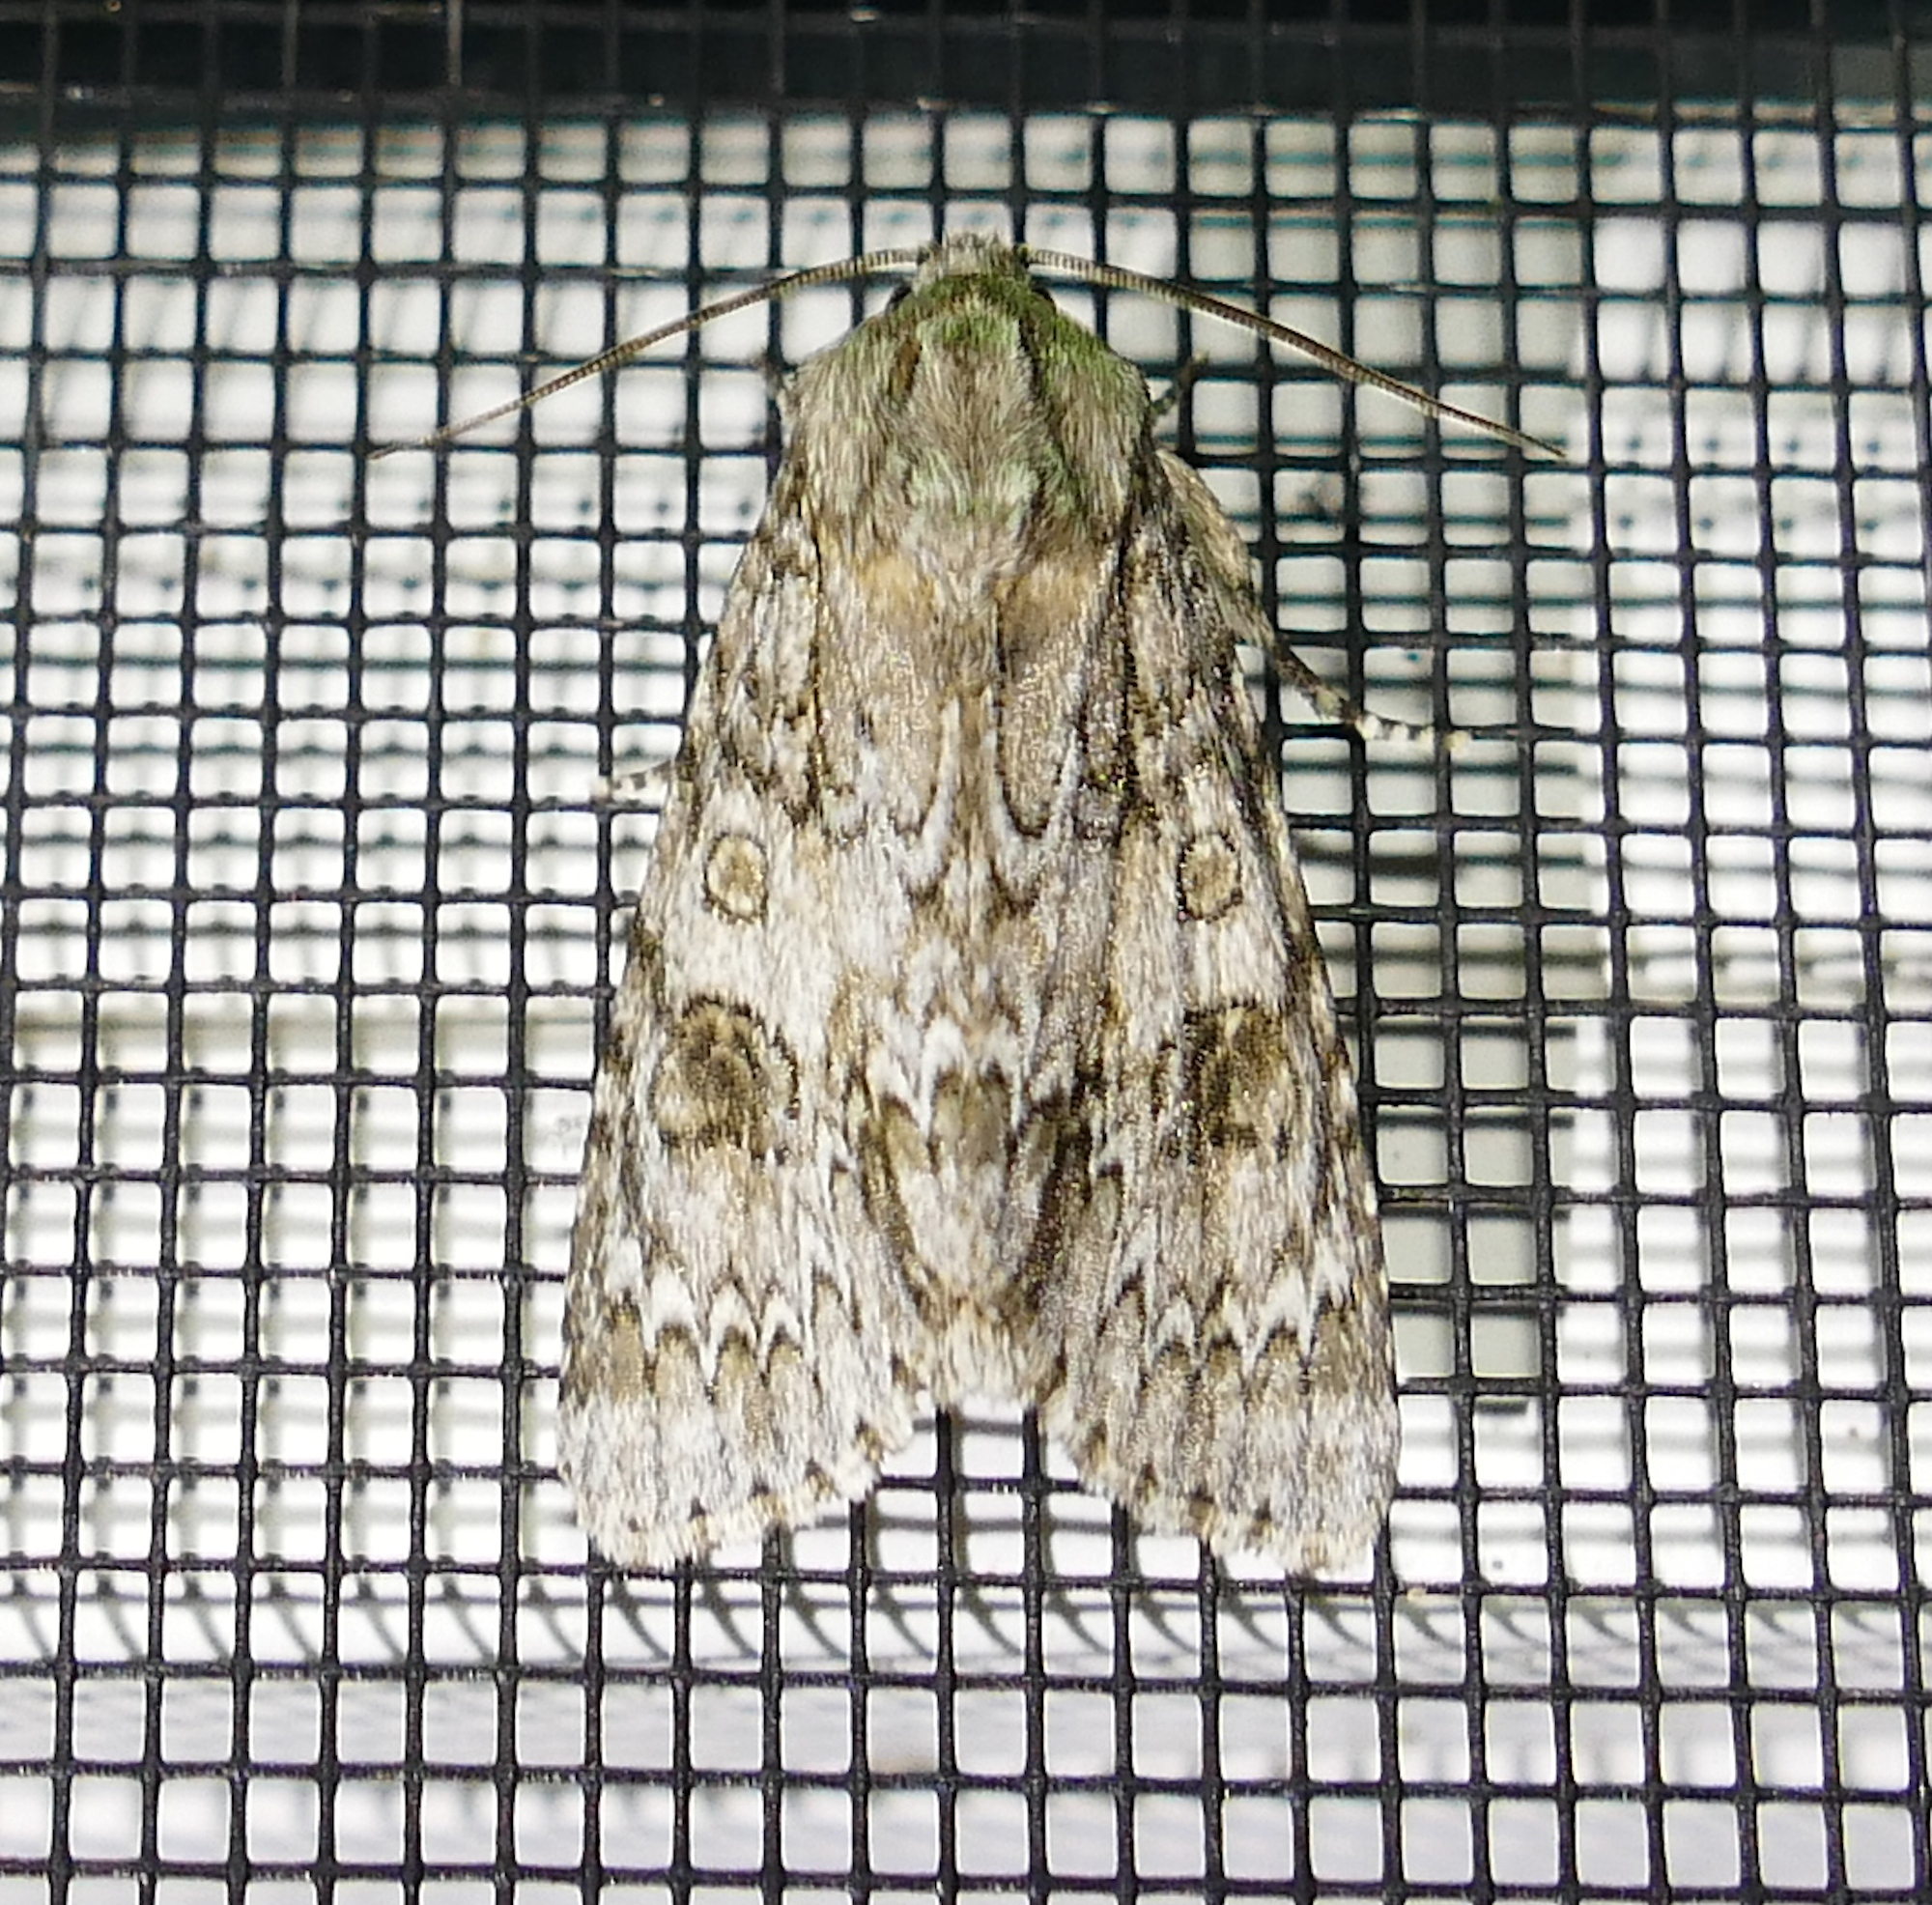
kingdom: Animalia
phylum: Arthropoda
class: Insecta
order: Lepidoptera
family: Noctuidae
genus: Acronicta
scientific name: Acronicta rubricoma
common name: Hackberry dagger
